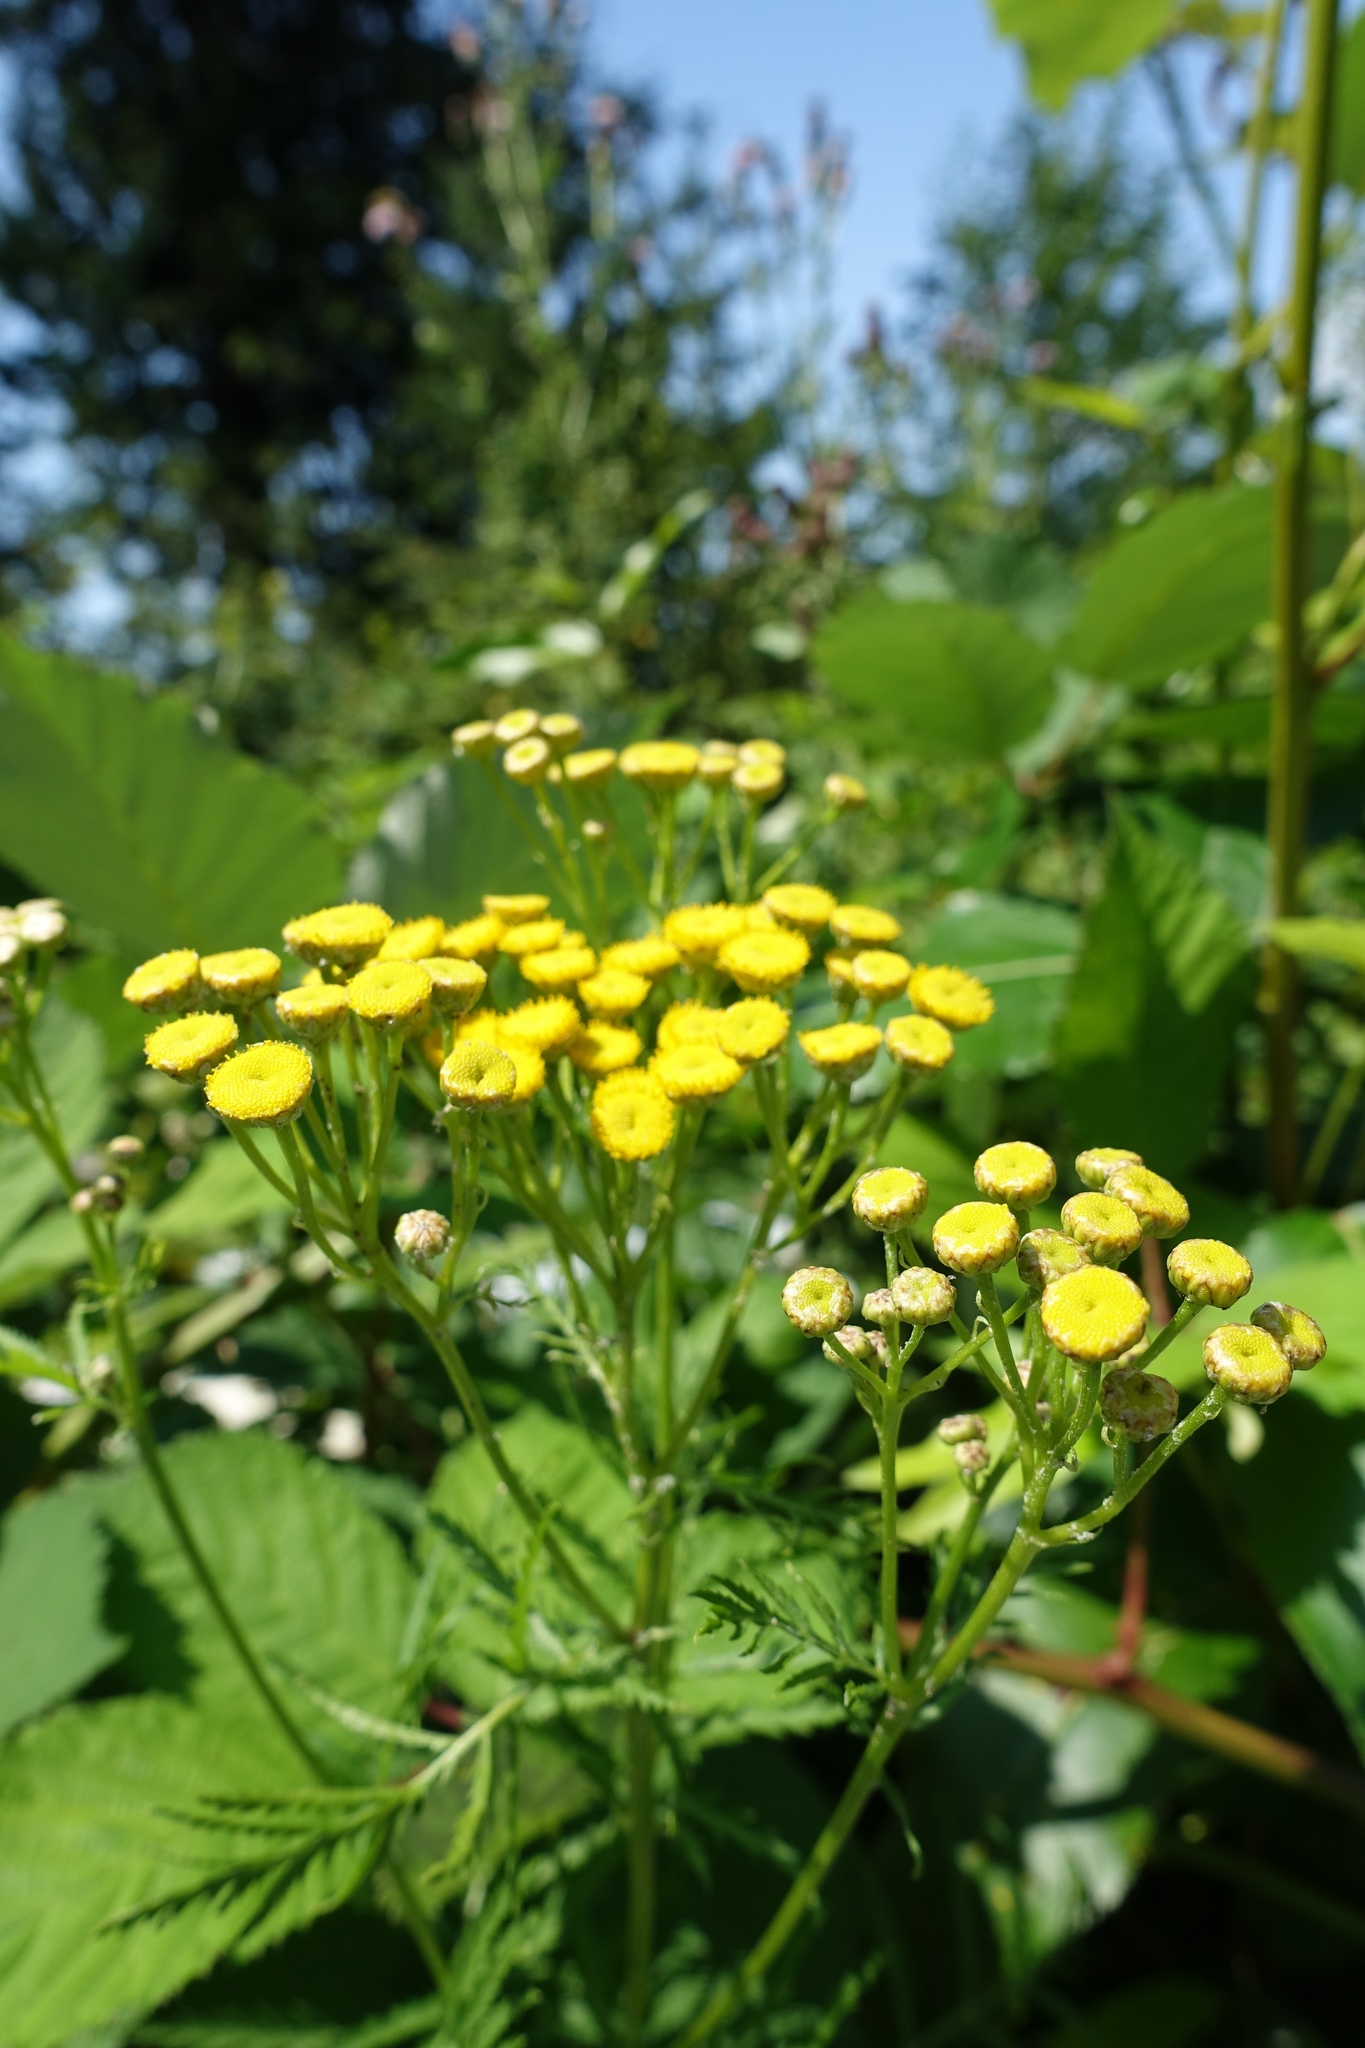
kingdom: Plantae
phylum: Tracheophyta
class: Magnoliopsida
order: Asterales
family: Asteraceae
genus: Tanacetum
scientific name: Tanacetum vulgare
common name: Common tansy
